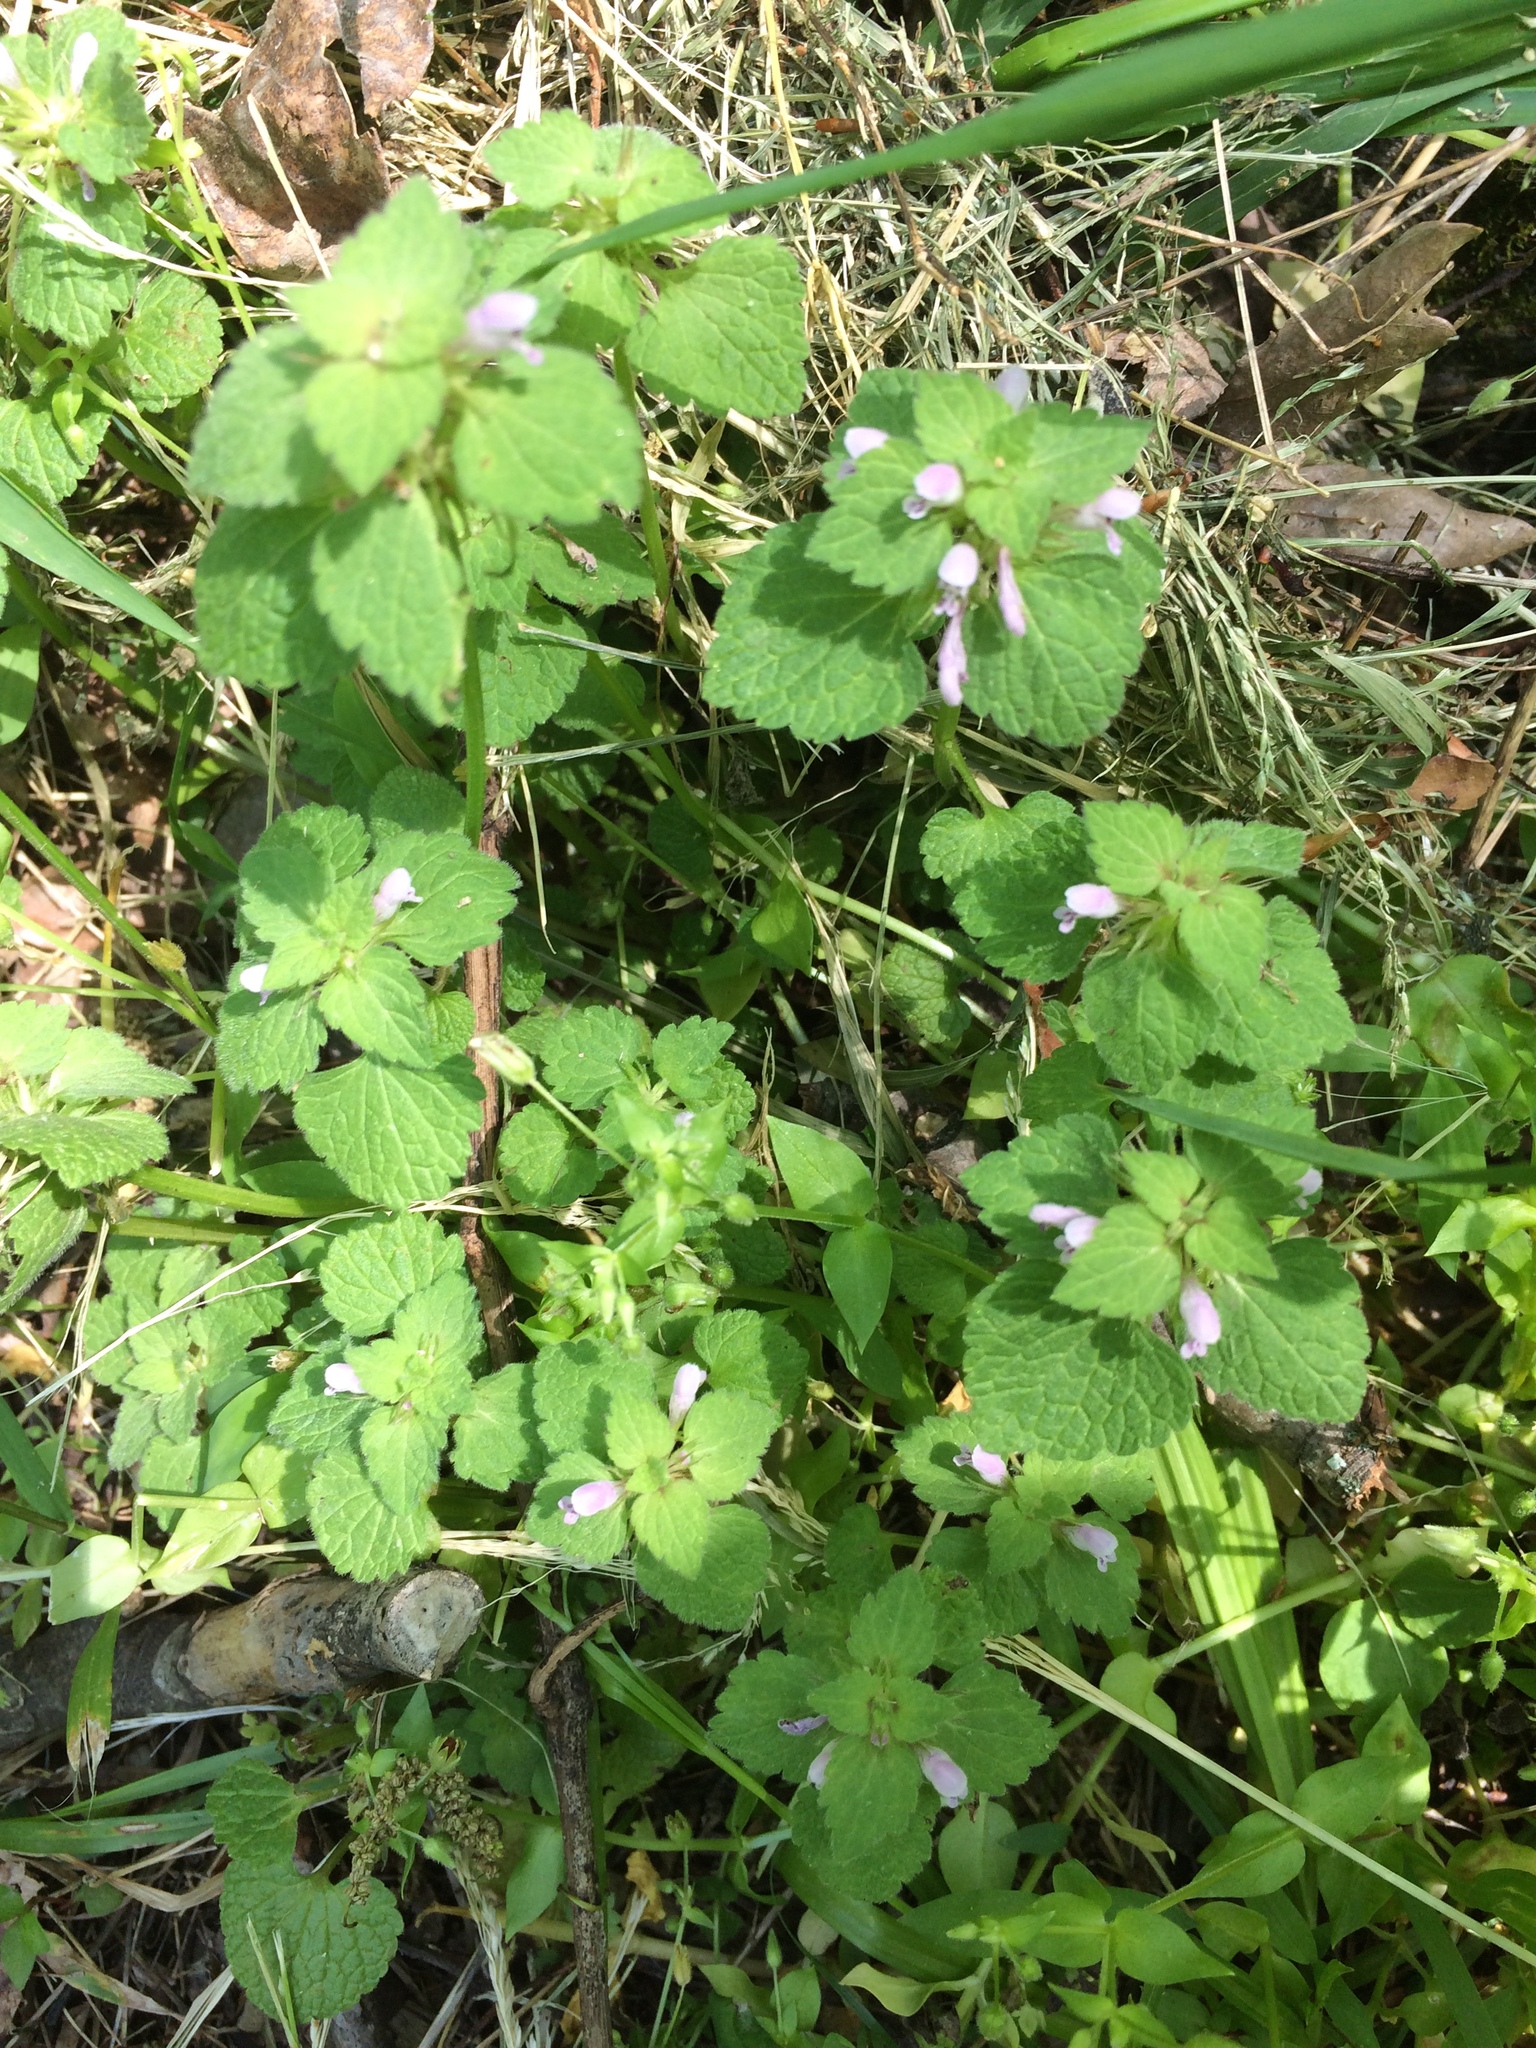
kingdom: Plantae
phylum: Tracheophyta
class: Magnoliopsida
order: Lamiales
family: Lamiaceae
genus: Lamium
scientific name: Lamium purpureum
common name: Red dead-nettle
